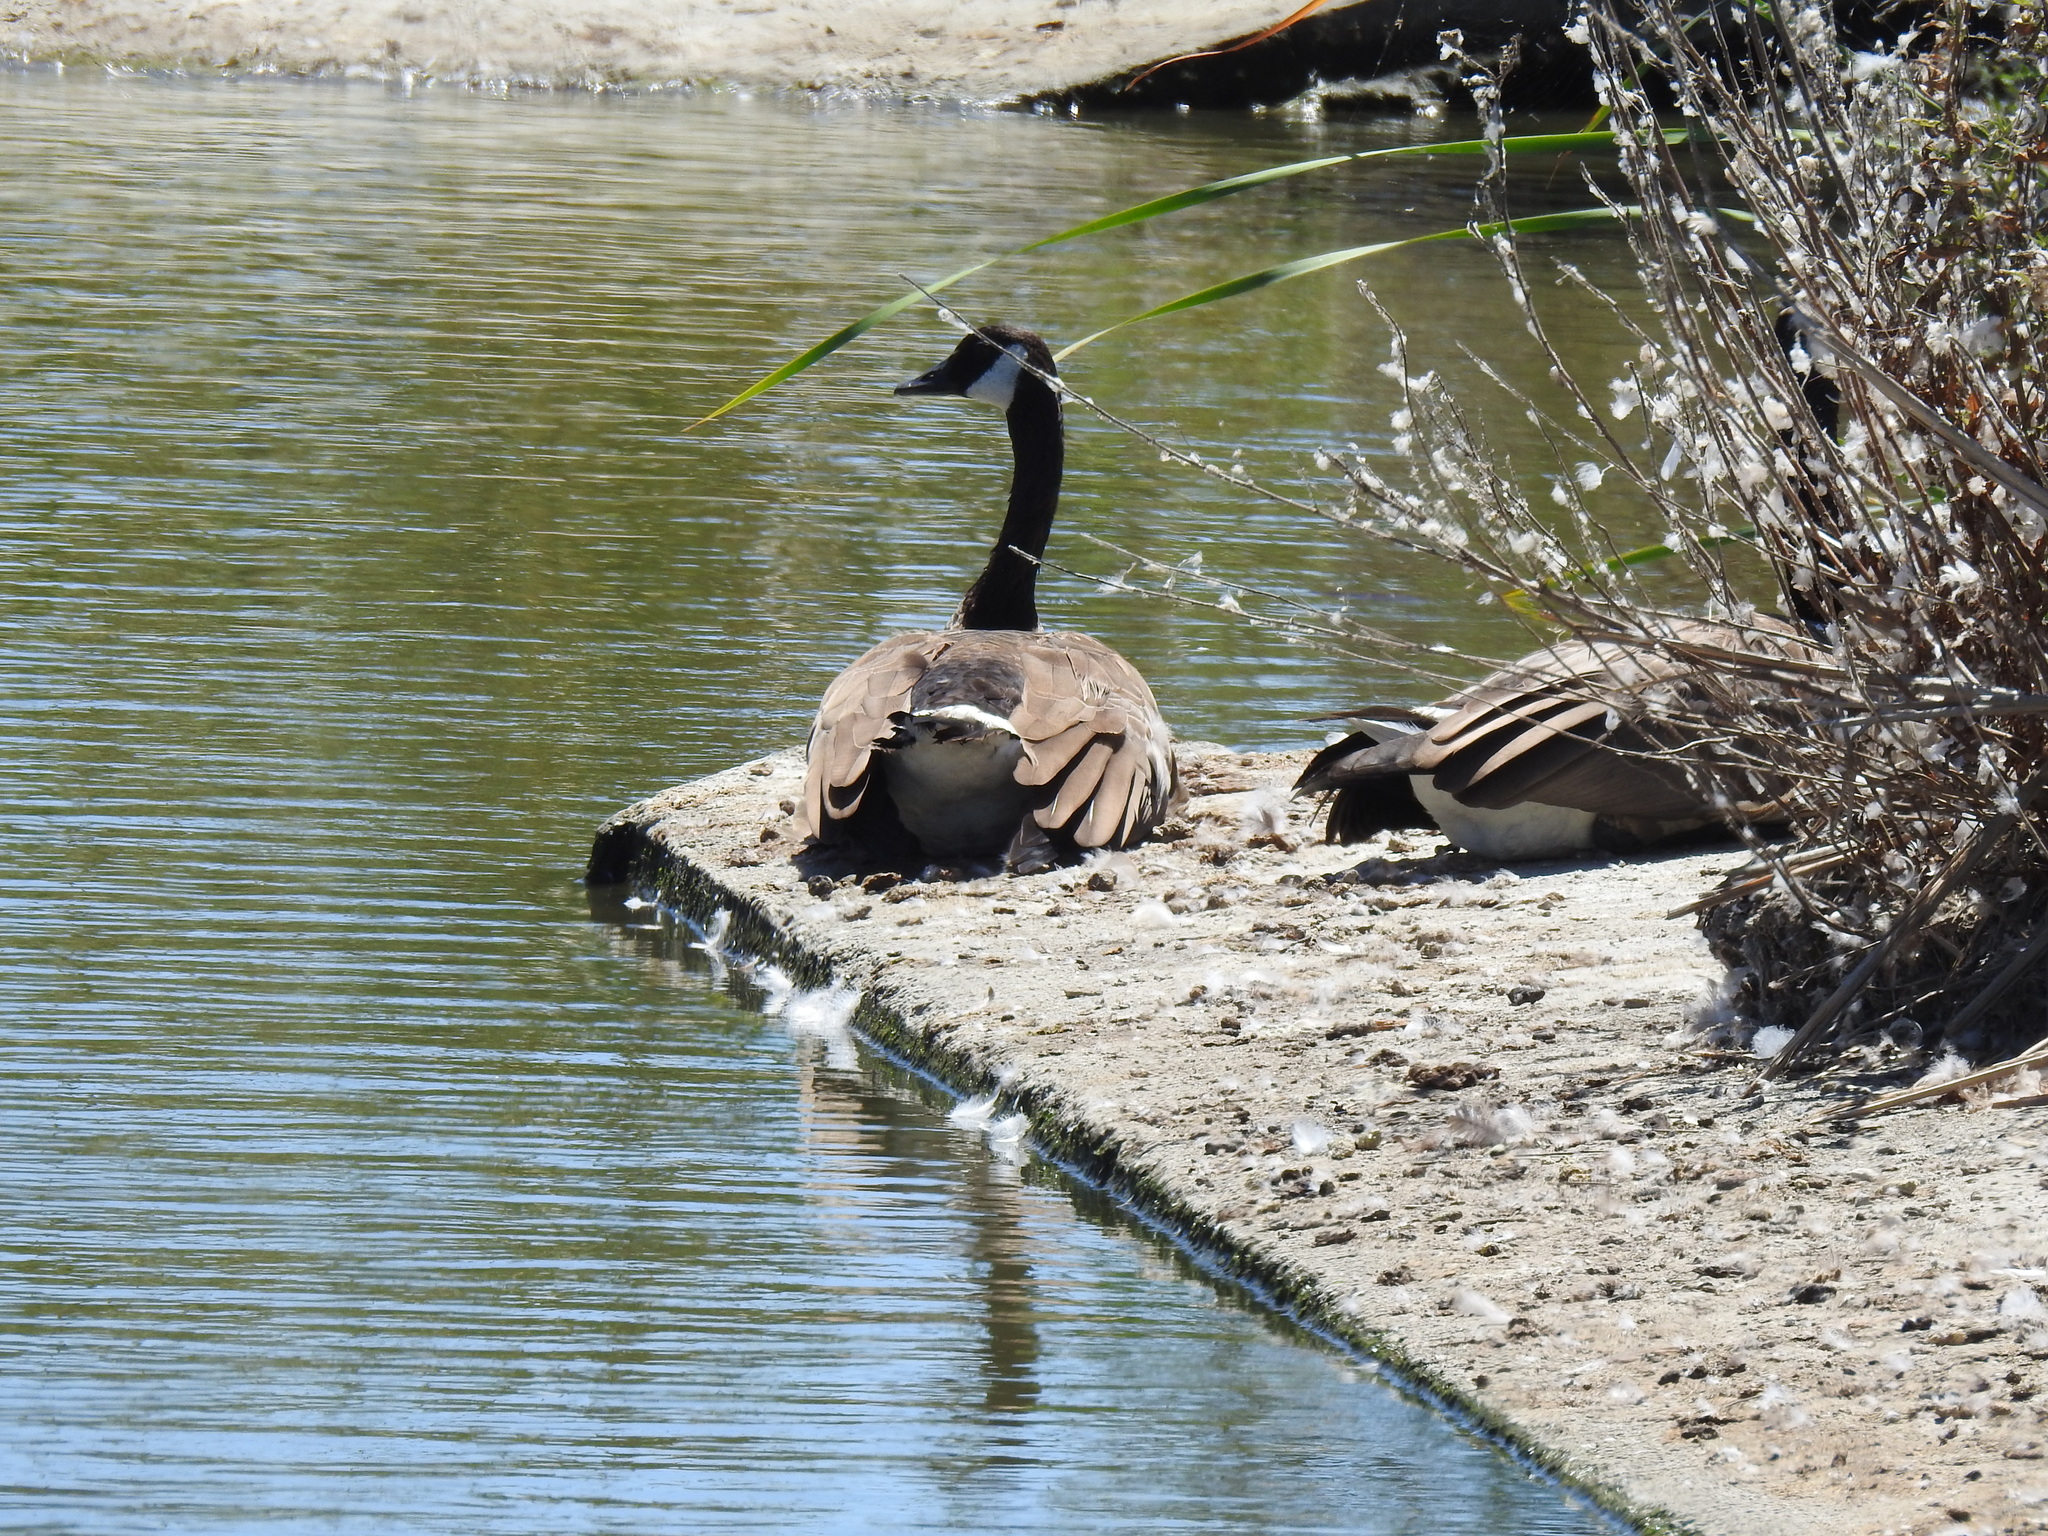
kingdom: Animalia
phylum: Chordata
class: Aves
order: Anseriformes
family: Anatidae
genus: Branta
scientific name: Branta canadensis
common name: Canada goose
